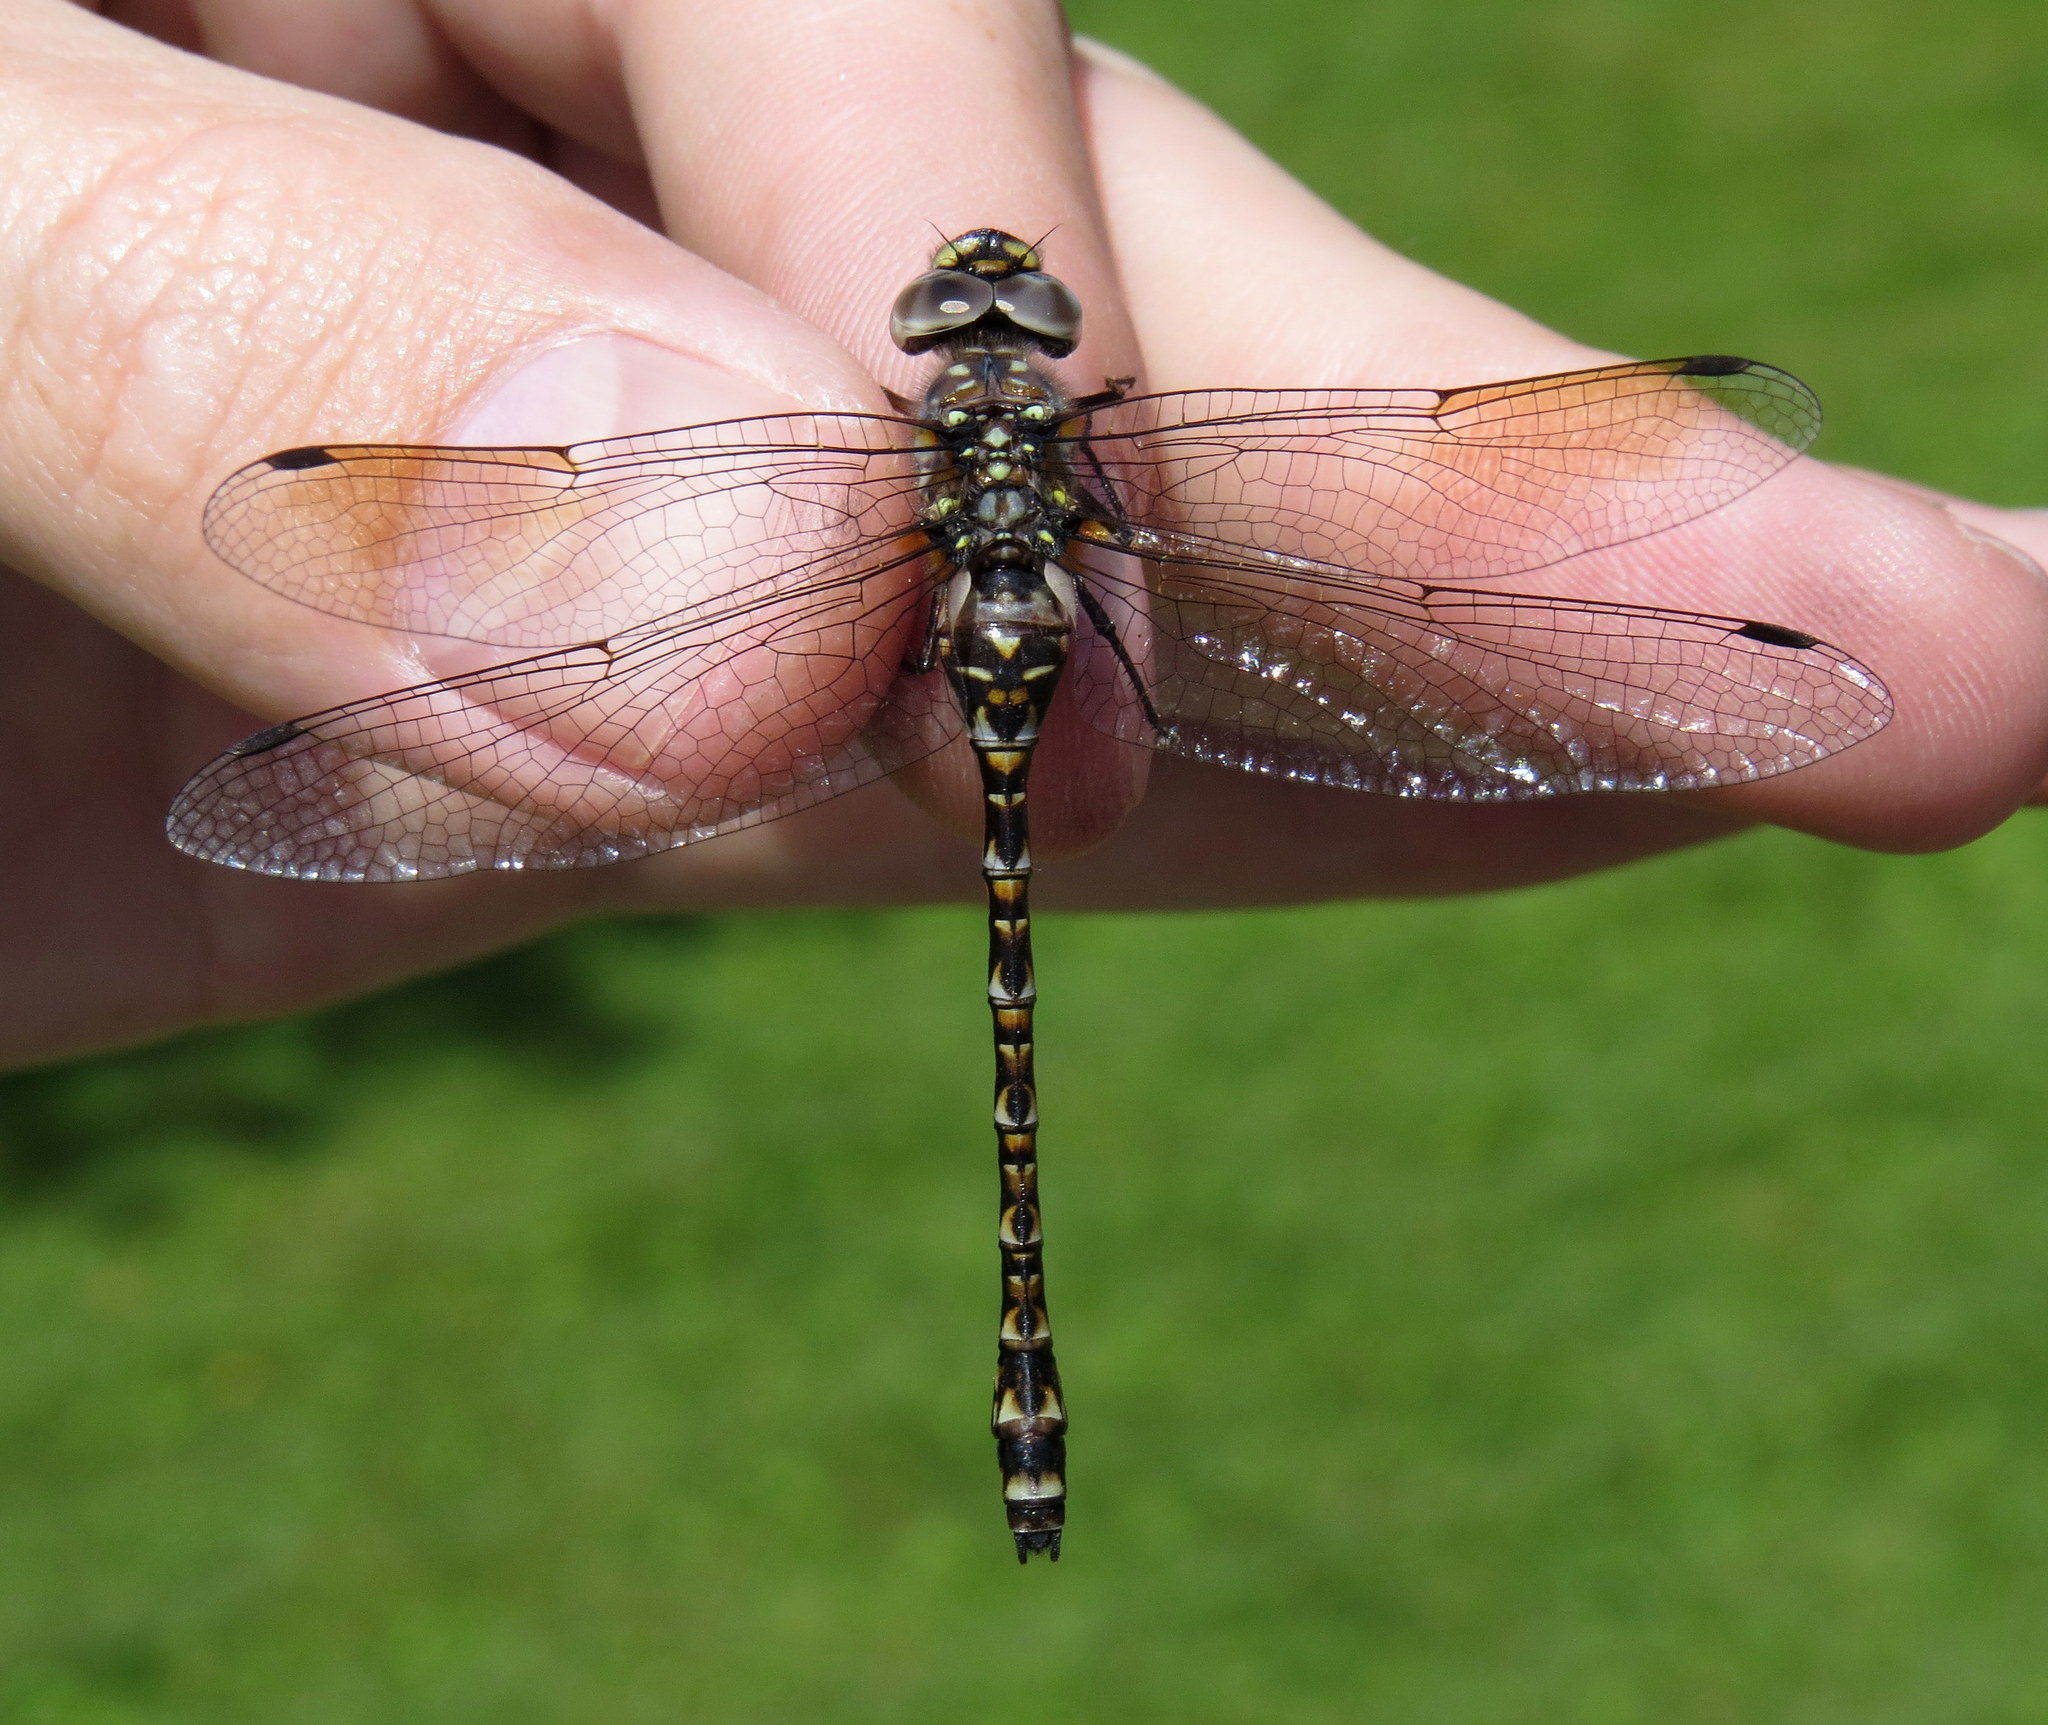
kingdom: Animalia
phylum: Arthropoda
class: Insecta
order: Odonata
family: Aeshnidae
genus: Gomphaeschna
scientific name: Gomphaeschna furcillata
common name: Harlequin darner
